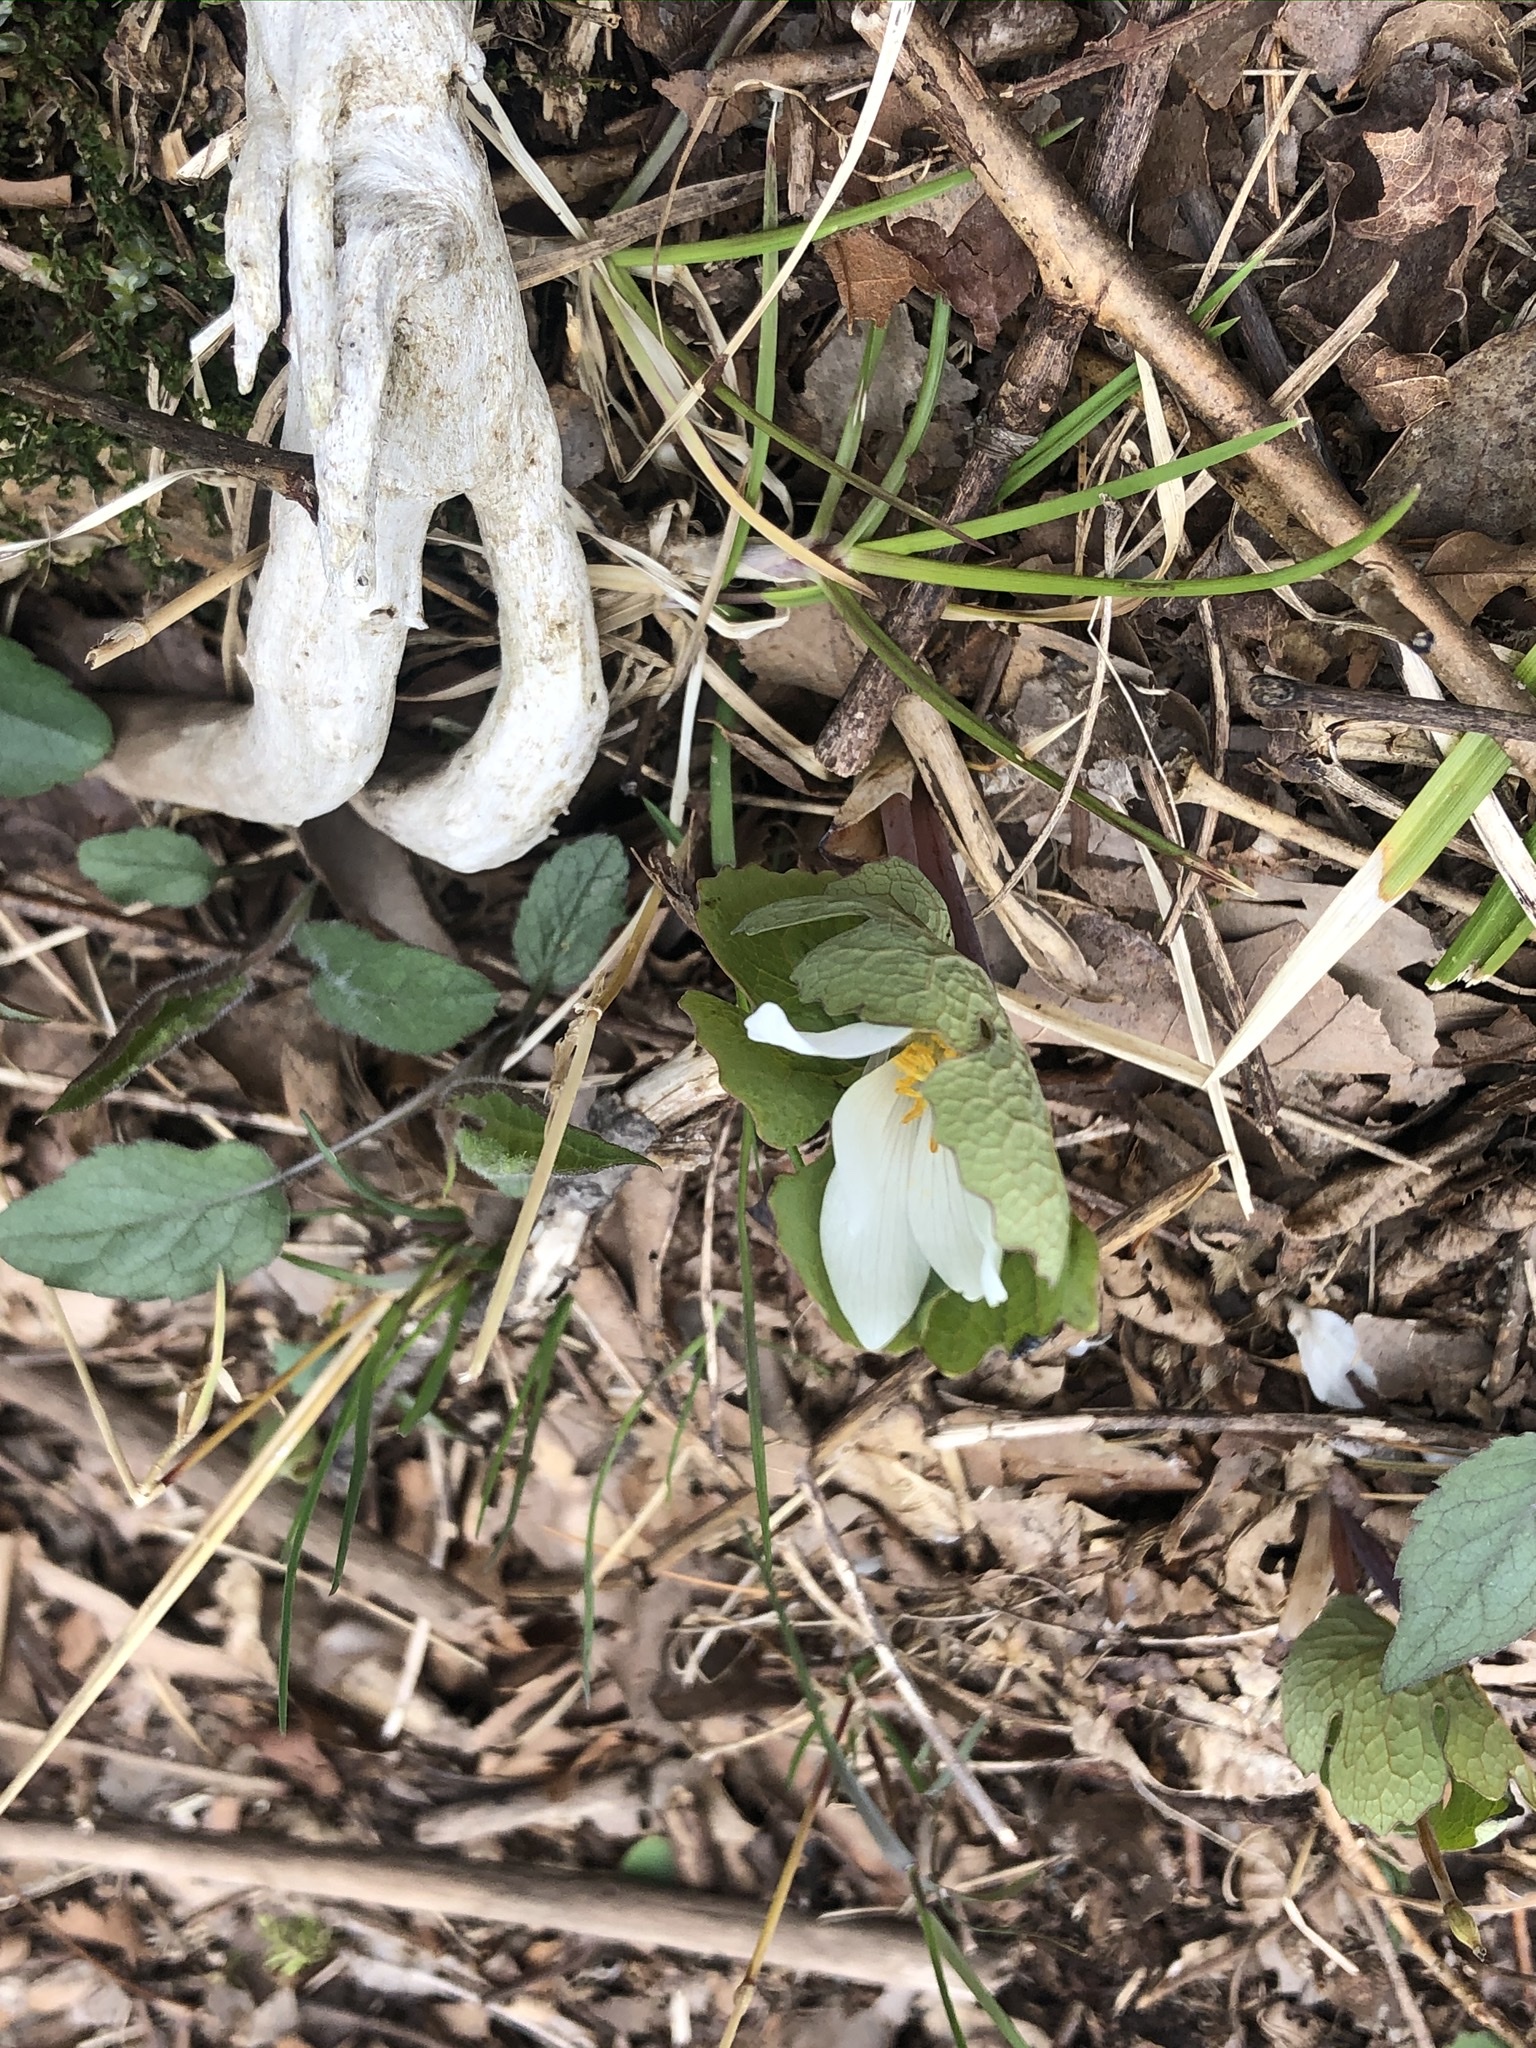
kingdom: Plantae
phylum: Tracheophyta
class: Magnoliopsida
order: Ranunculales
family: Papaveraceae
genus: Sanguinaria
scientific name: Sanguinaria canadensis
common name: Bloodroot
